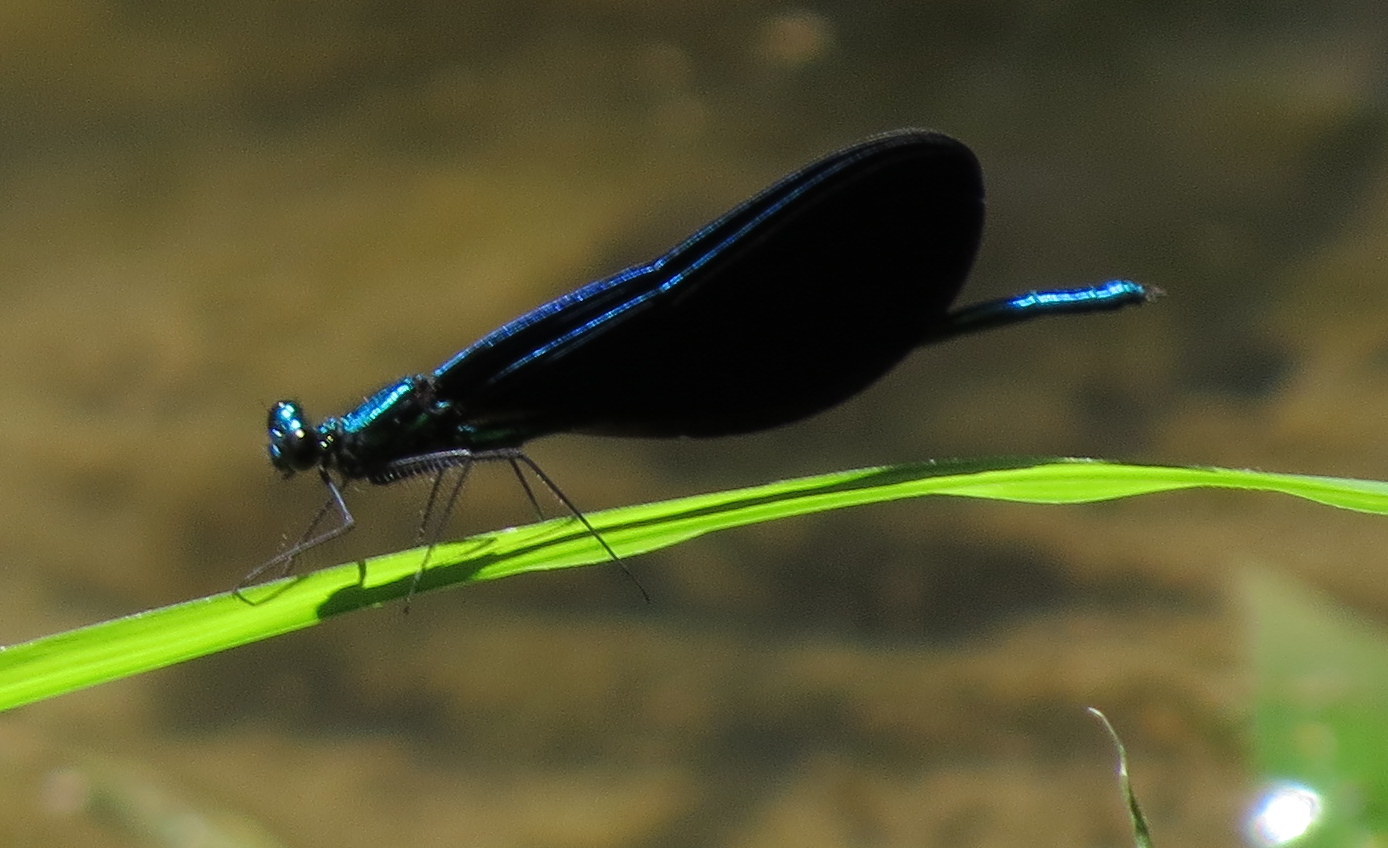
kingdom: Animalia
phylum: Arthropoda
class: Insecta
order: Odonata
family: Calopterygidae
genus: Calopteryx
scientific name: Calopteryx maculata
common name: Ebony jewelwing
